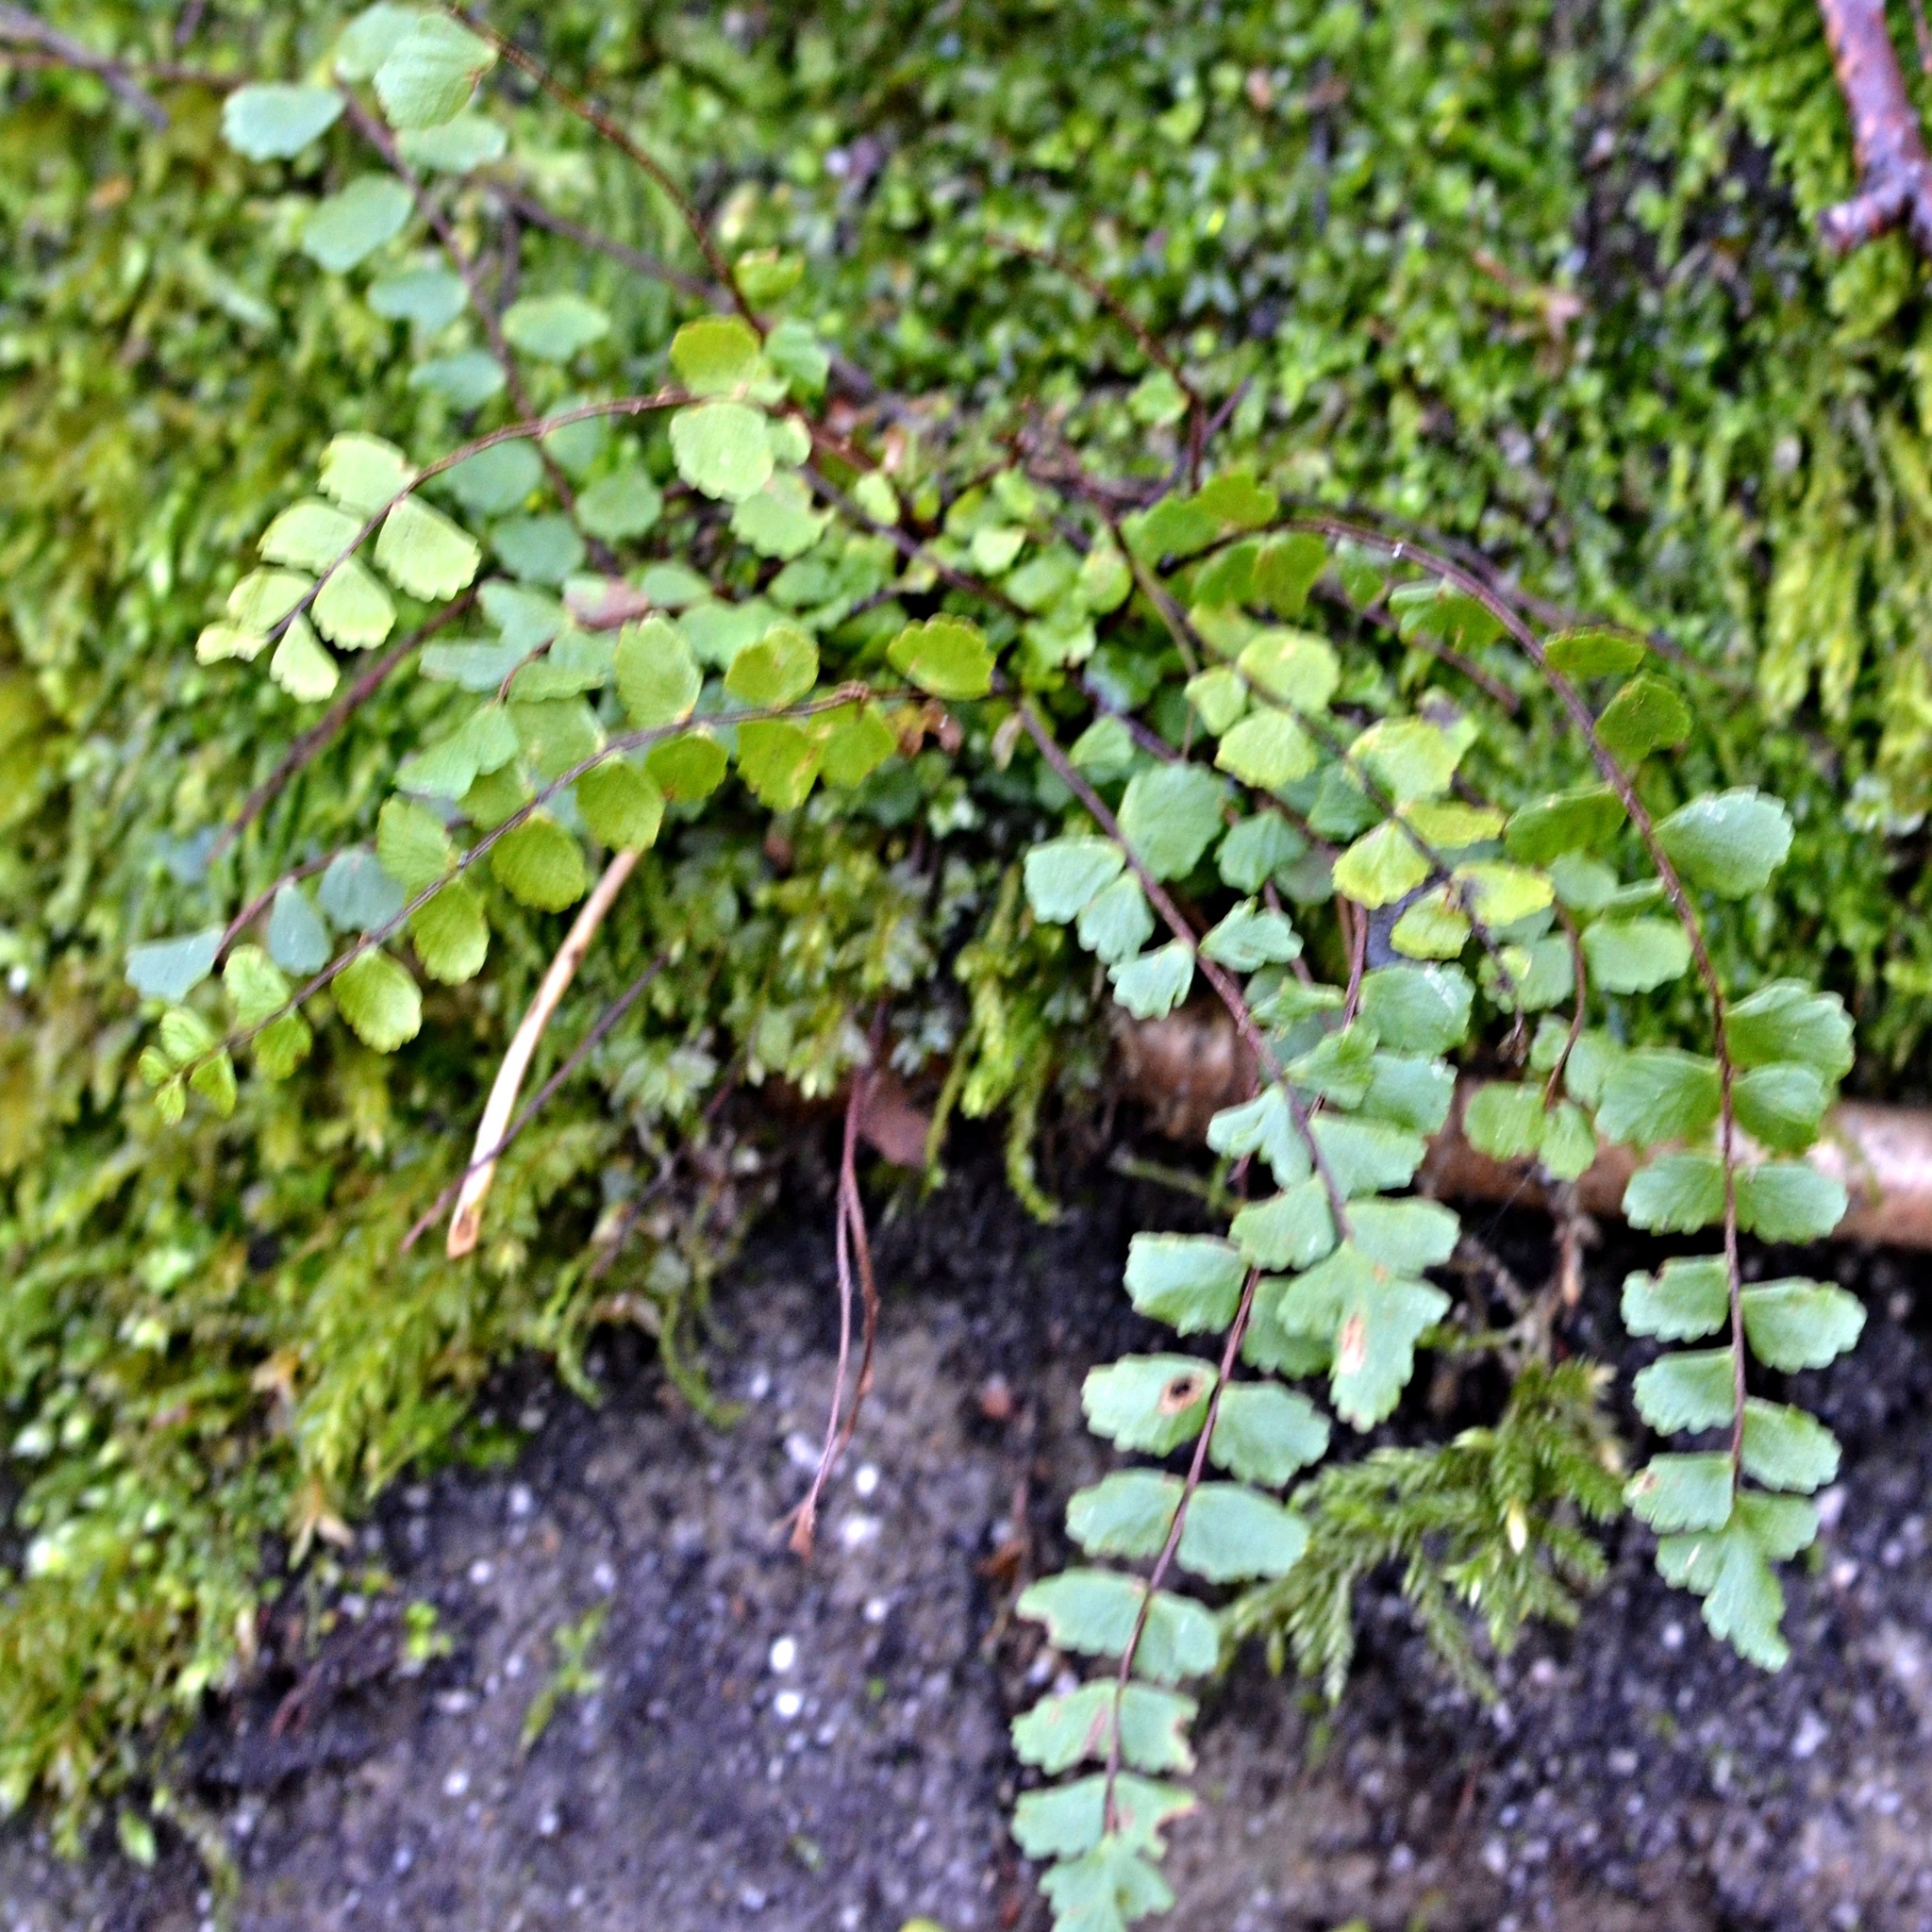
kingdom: Plantae
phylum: Tracheophyta
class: Polypodiopsida
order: Polypodiales
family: Aspleniaceae
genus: Asplenium
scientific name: Asplenium trichomanes
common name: Maidenhair spleenwort
